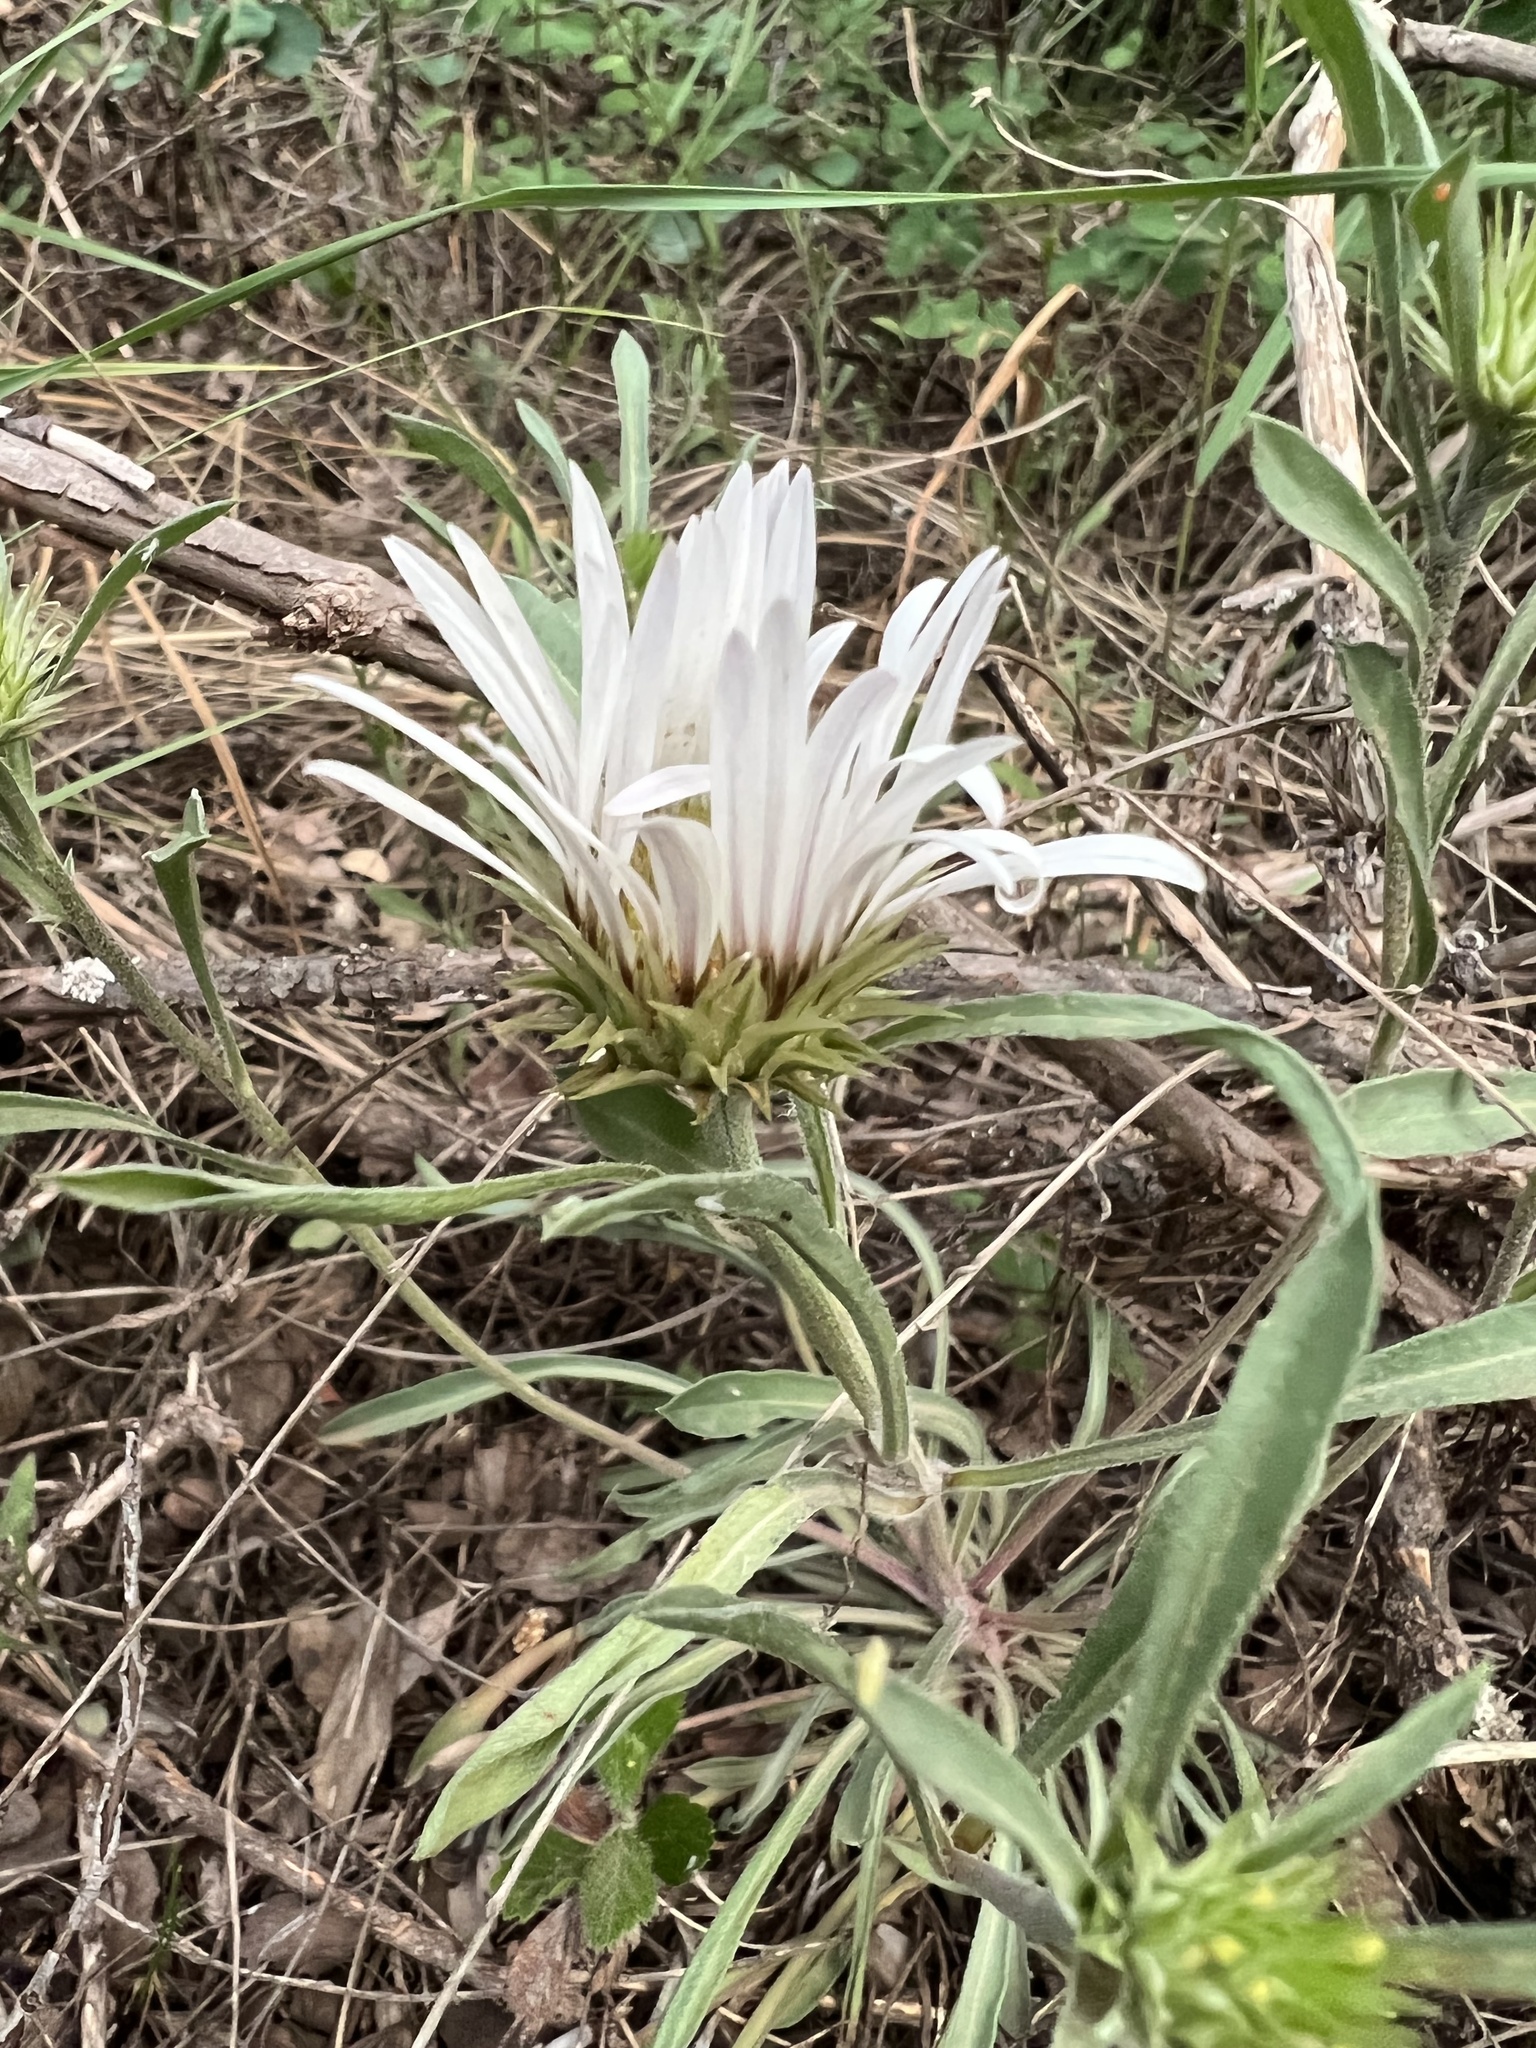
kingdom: Plantae
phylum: Tracheophyta
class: Magnoliopsida
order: Asterales
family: Asteraceae
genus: Townsendia
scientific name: Townsendia grandiflora
